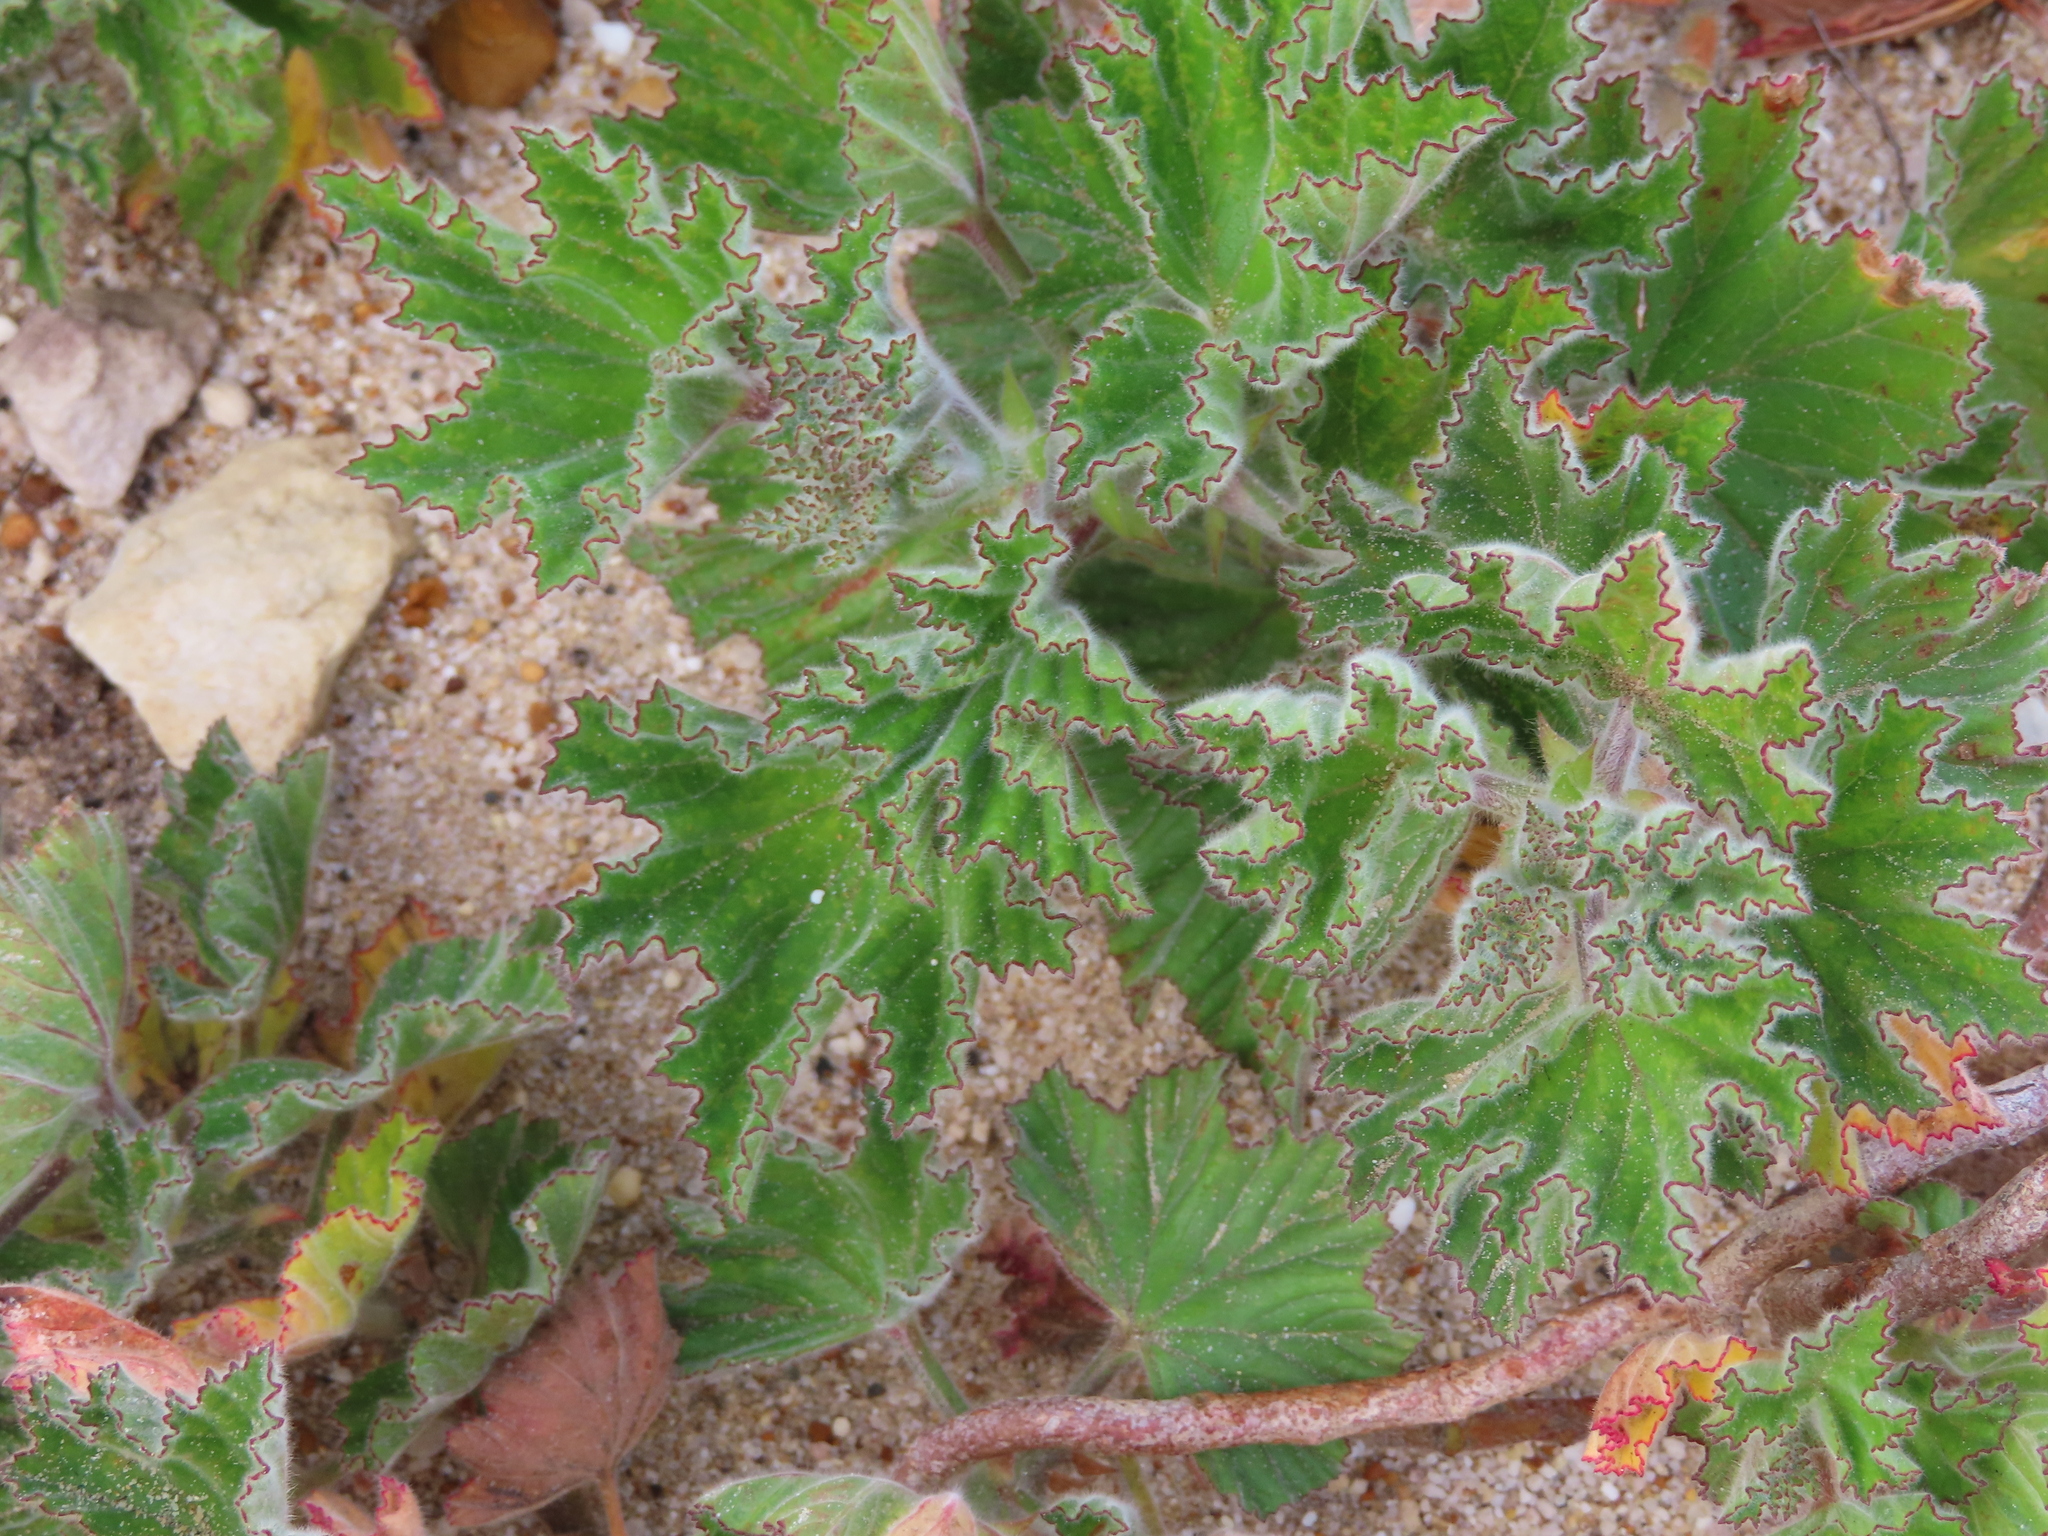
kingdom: Plantae
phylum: Tracheophyta
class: Magnoliopsida
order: Geraniales
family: Geraniaceae
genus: Pelargonium
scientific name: Pelargonium cucullatum
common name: Tree pelargonium
